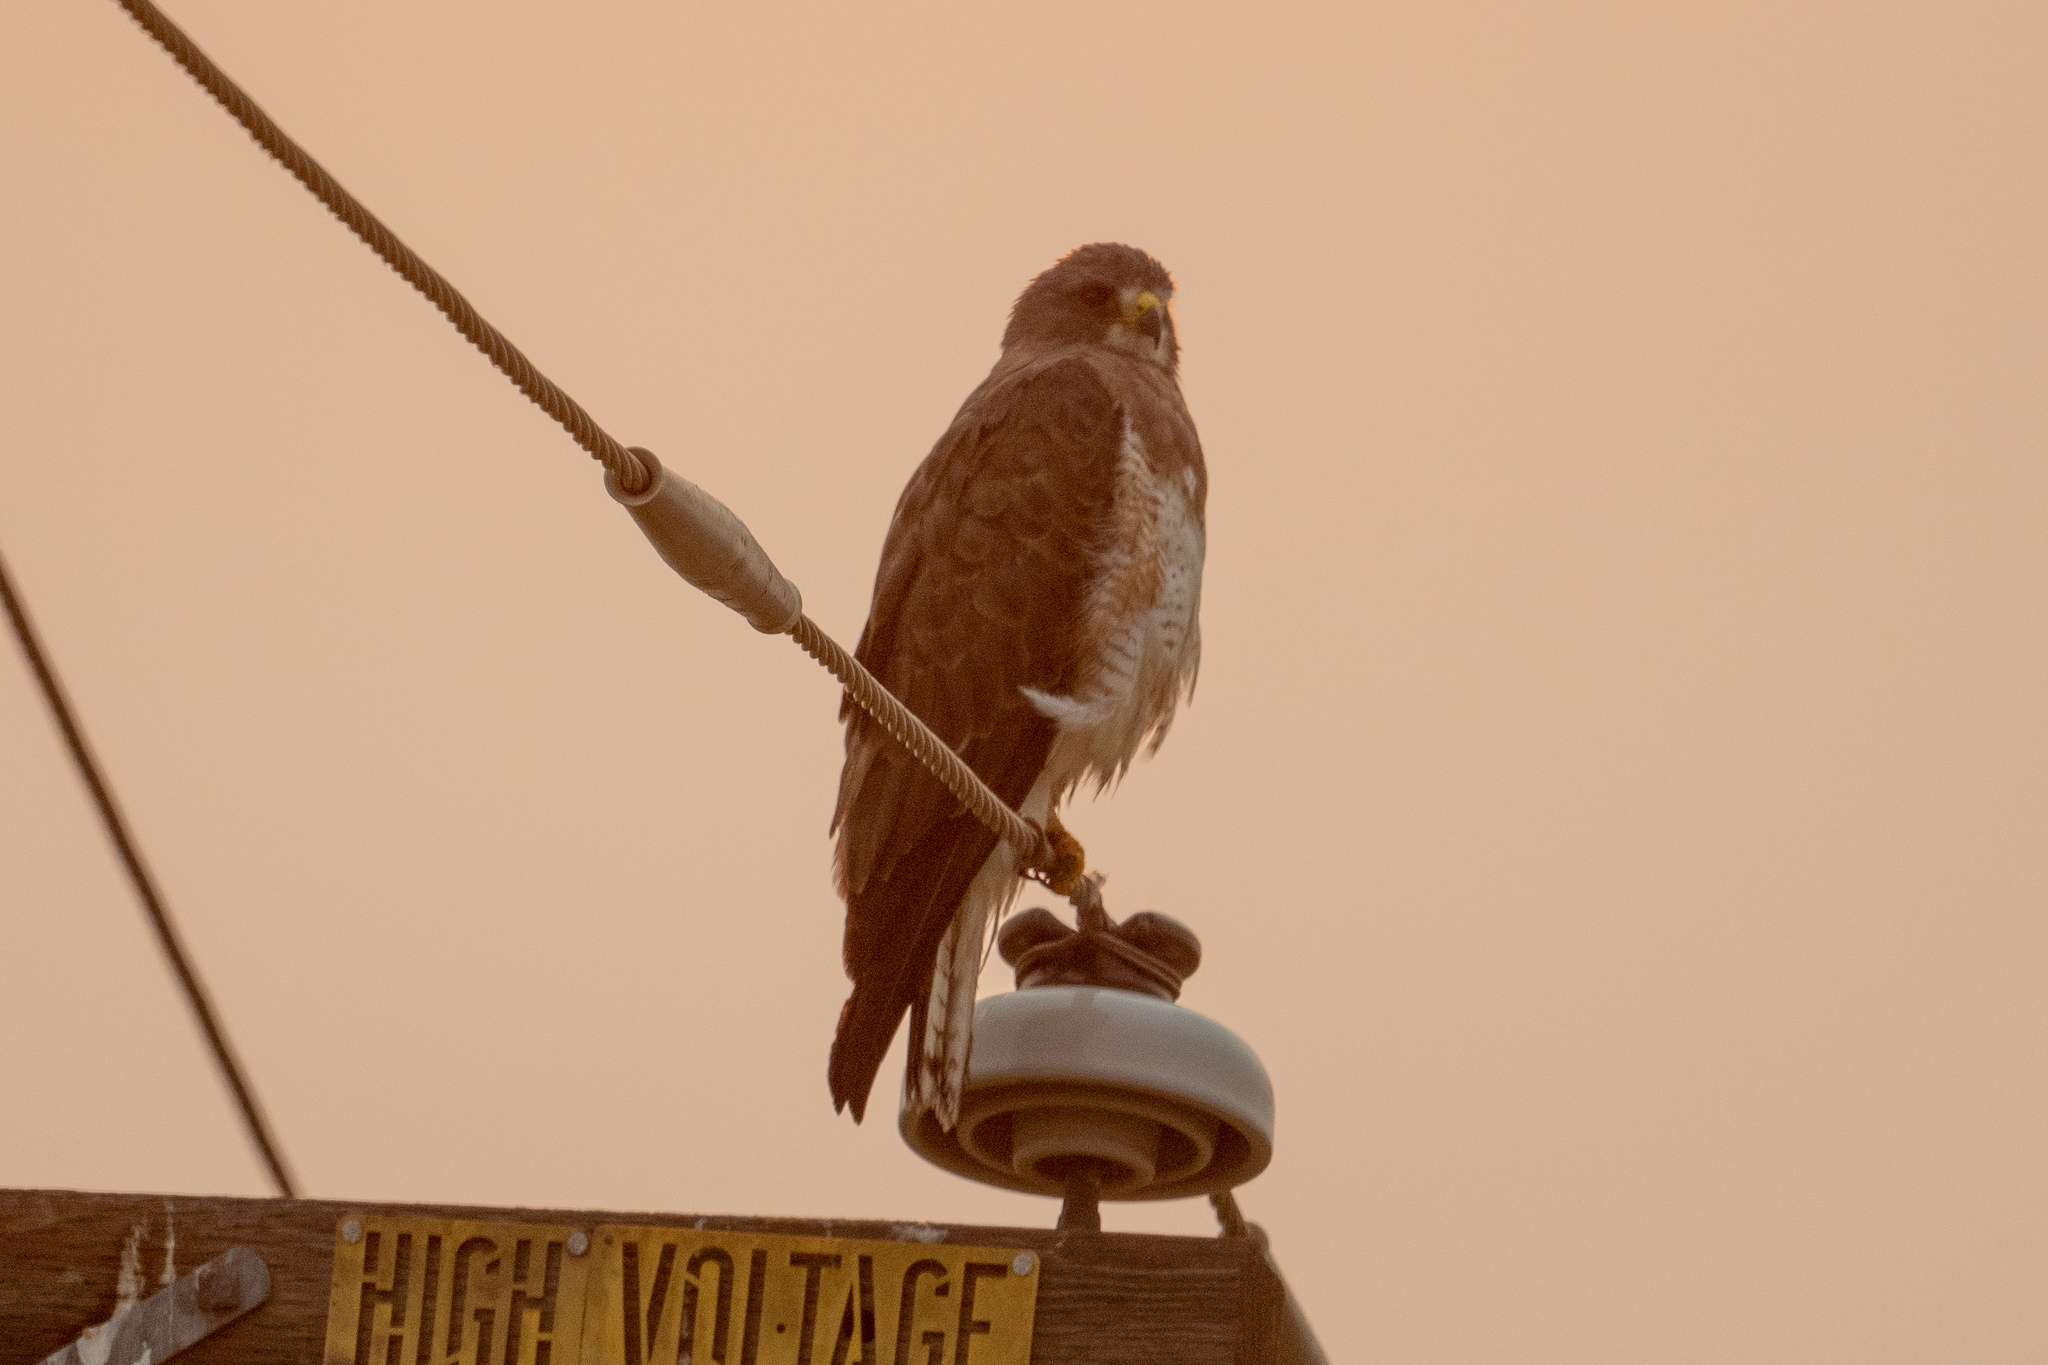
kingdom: Animalia
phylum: Chordata
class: Aves
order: Accipitriformes
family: Accipitridae
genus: Buteo
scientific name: Buteo swainsoni
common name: Swainson's hawk
